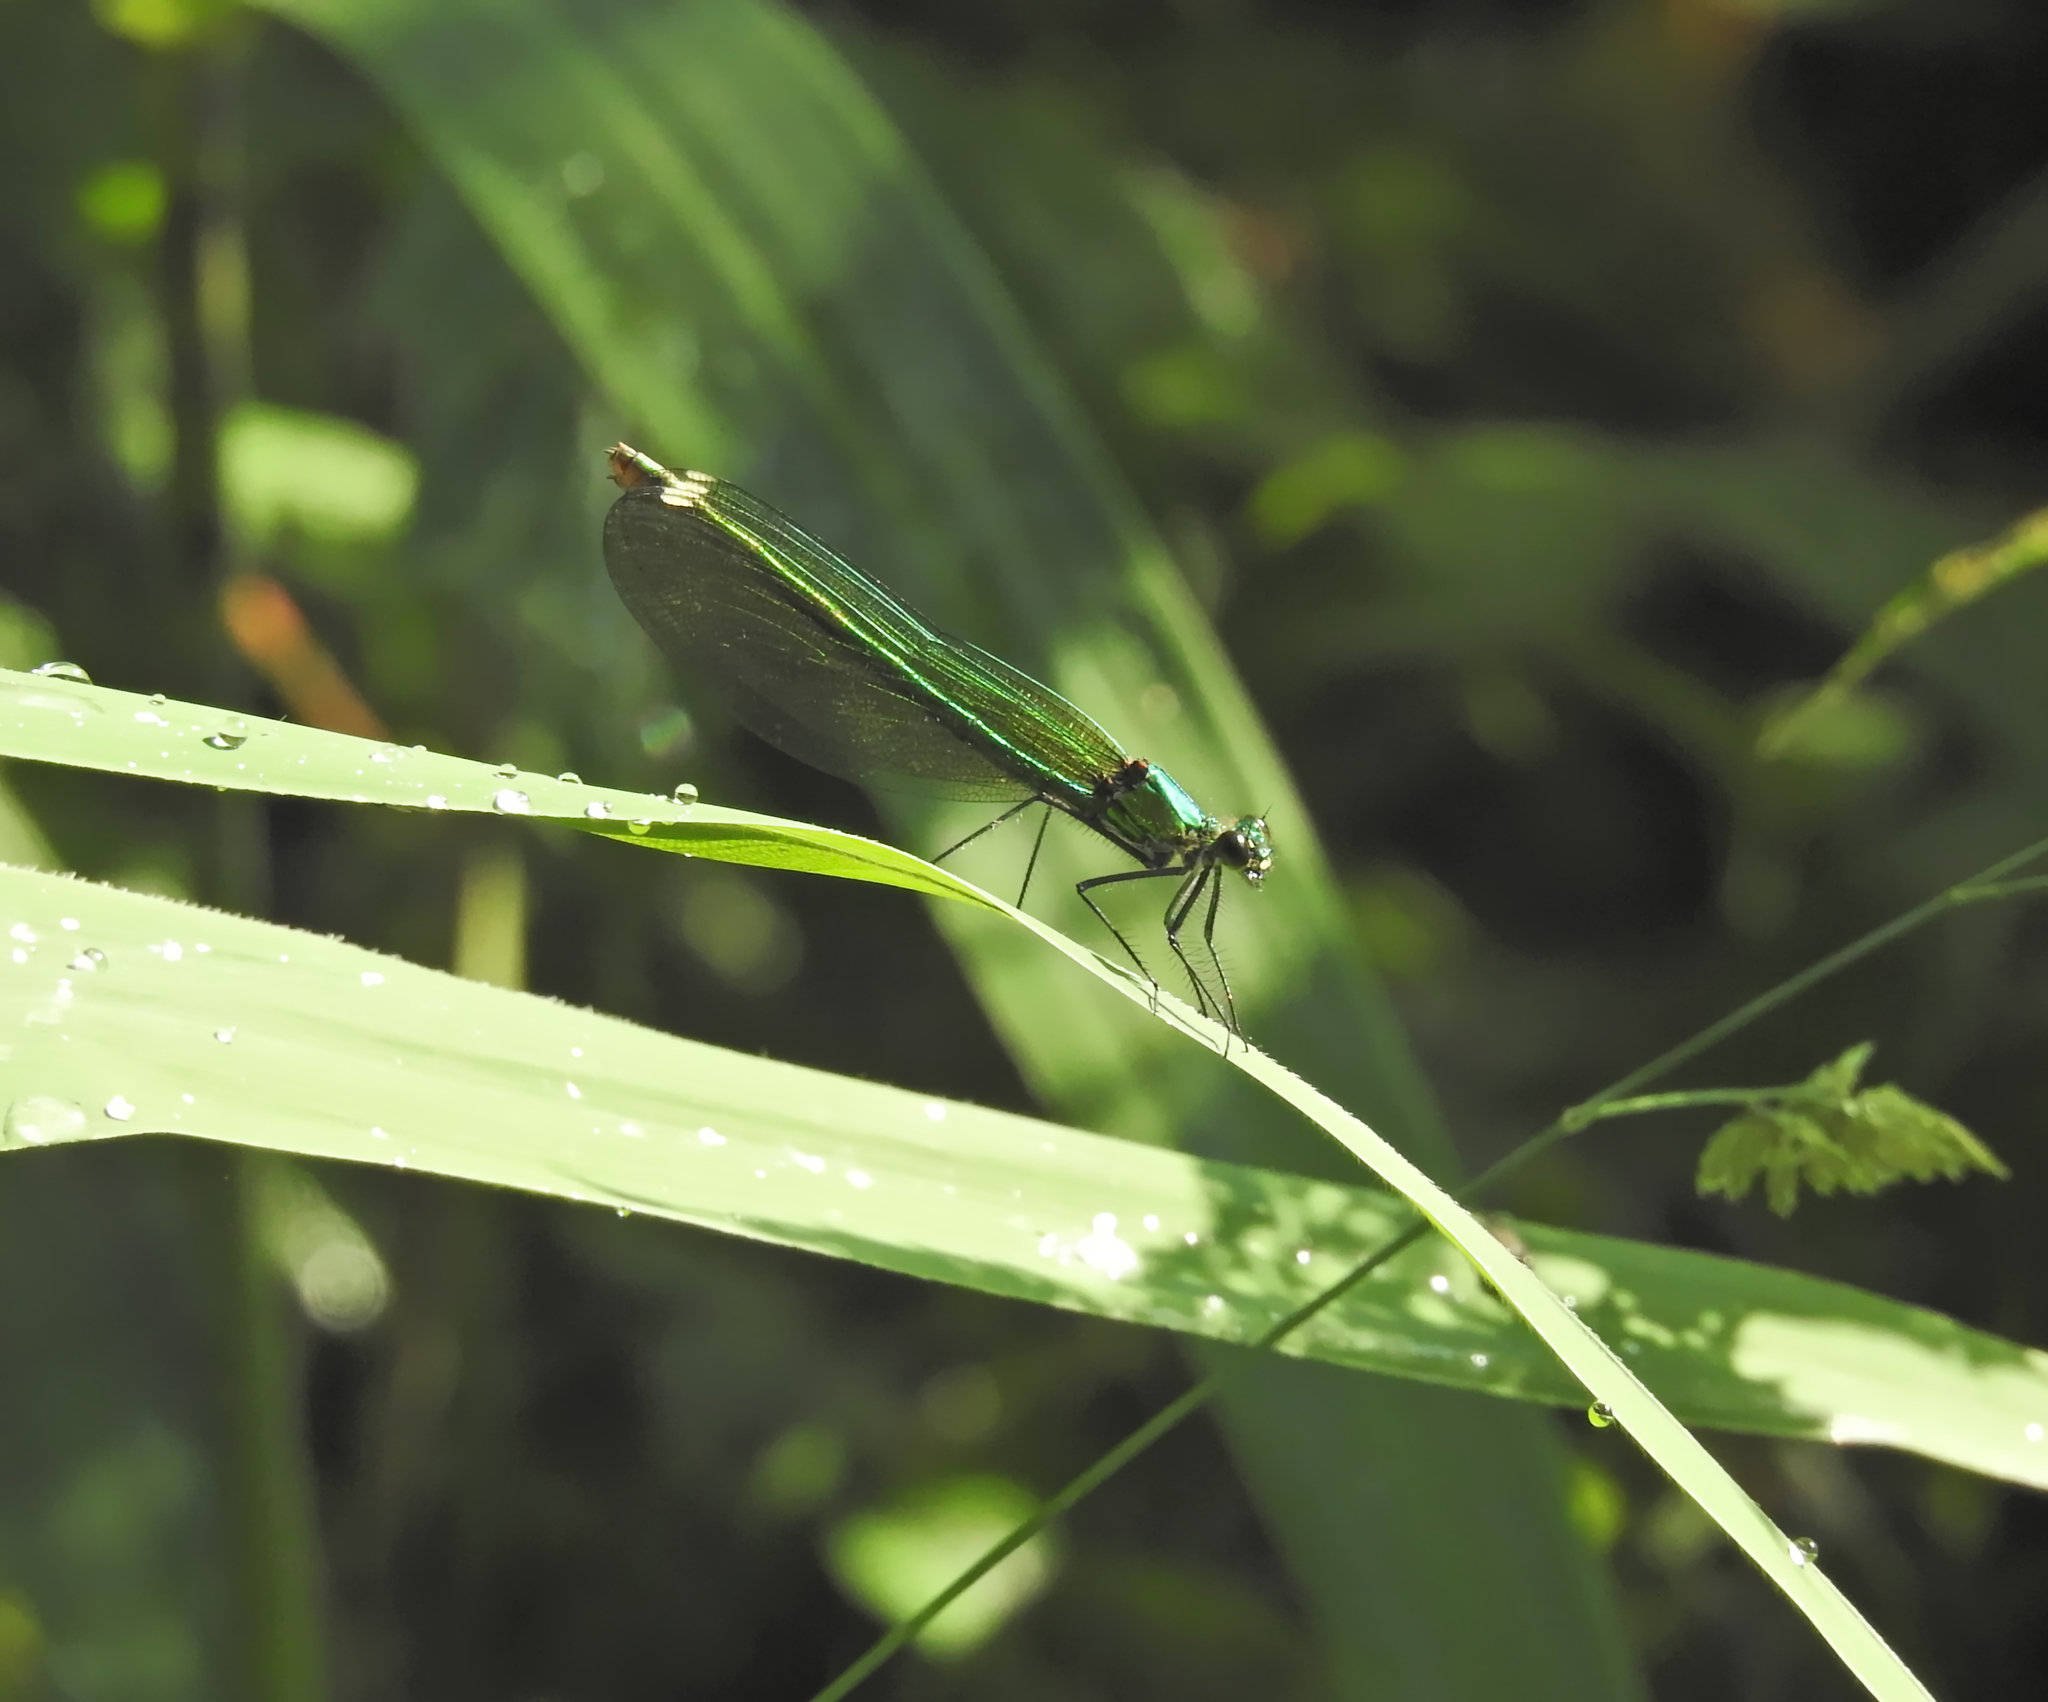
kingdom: Animalia
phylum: Arthropoda
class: Insecta
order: Odonata
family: Calopterygidae
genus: Calopteryx
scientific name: Calopteryx splendens
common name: Banded demoiselle
